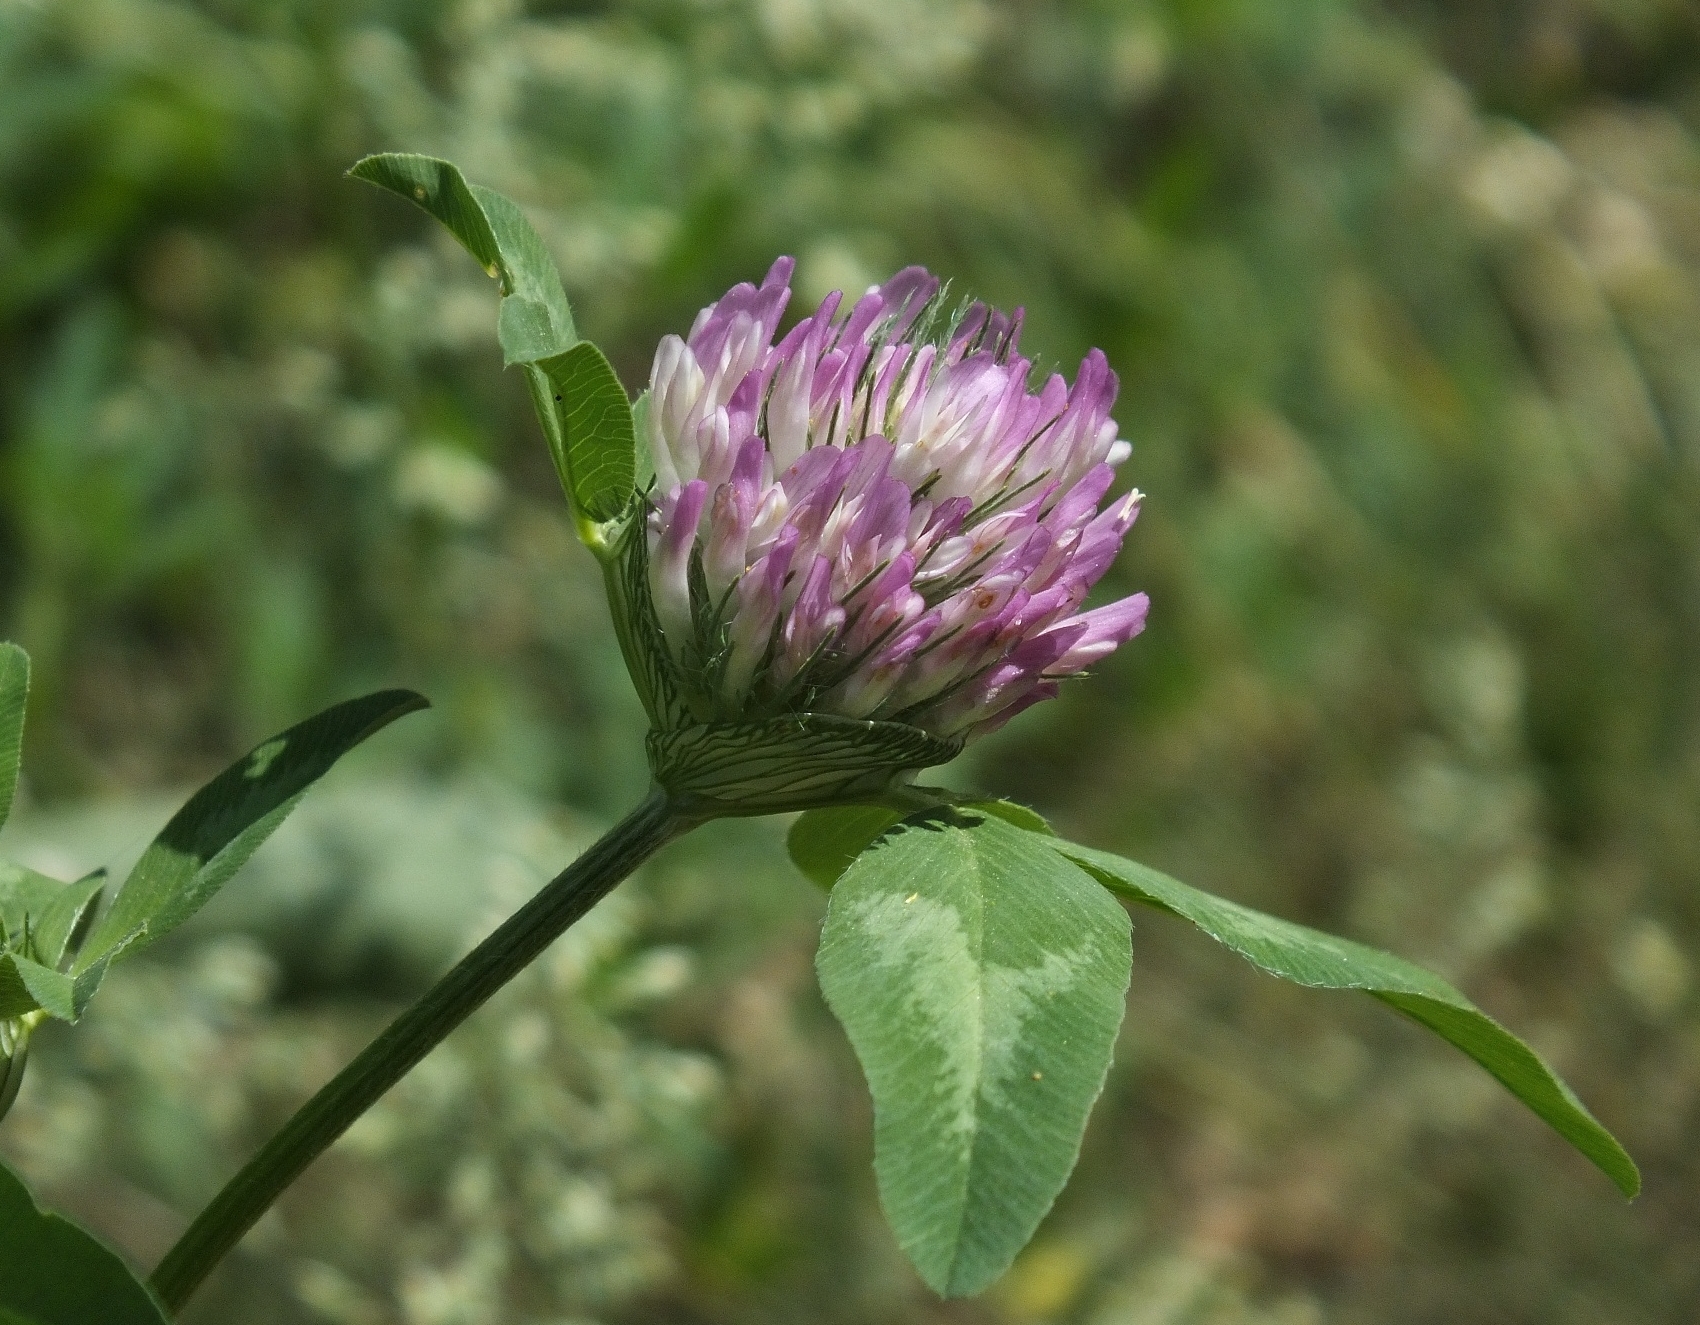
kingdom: Plantae
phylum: Tracheophyta
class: Magnoliopsida
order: Fabales
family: Fabaceae
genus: Trifolium
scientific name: Trifolium pratense
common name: Red clover
